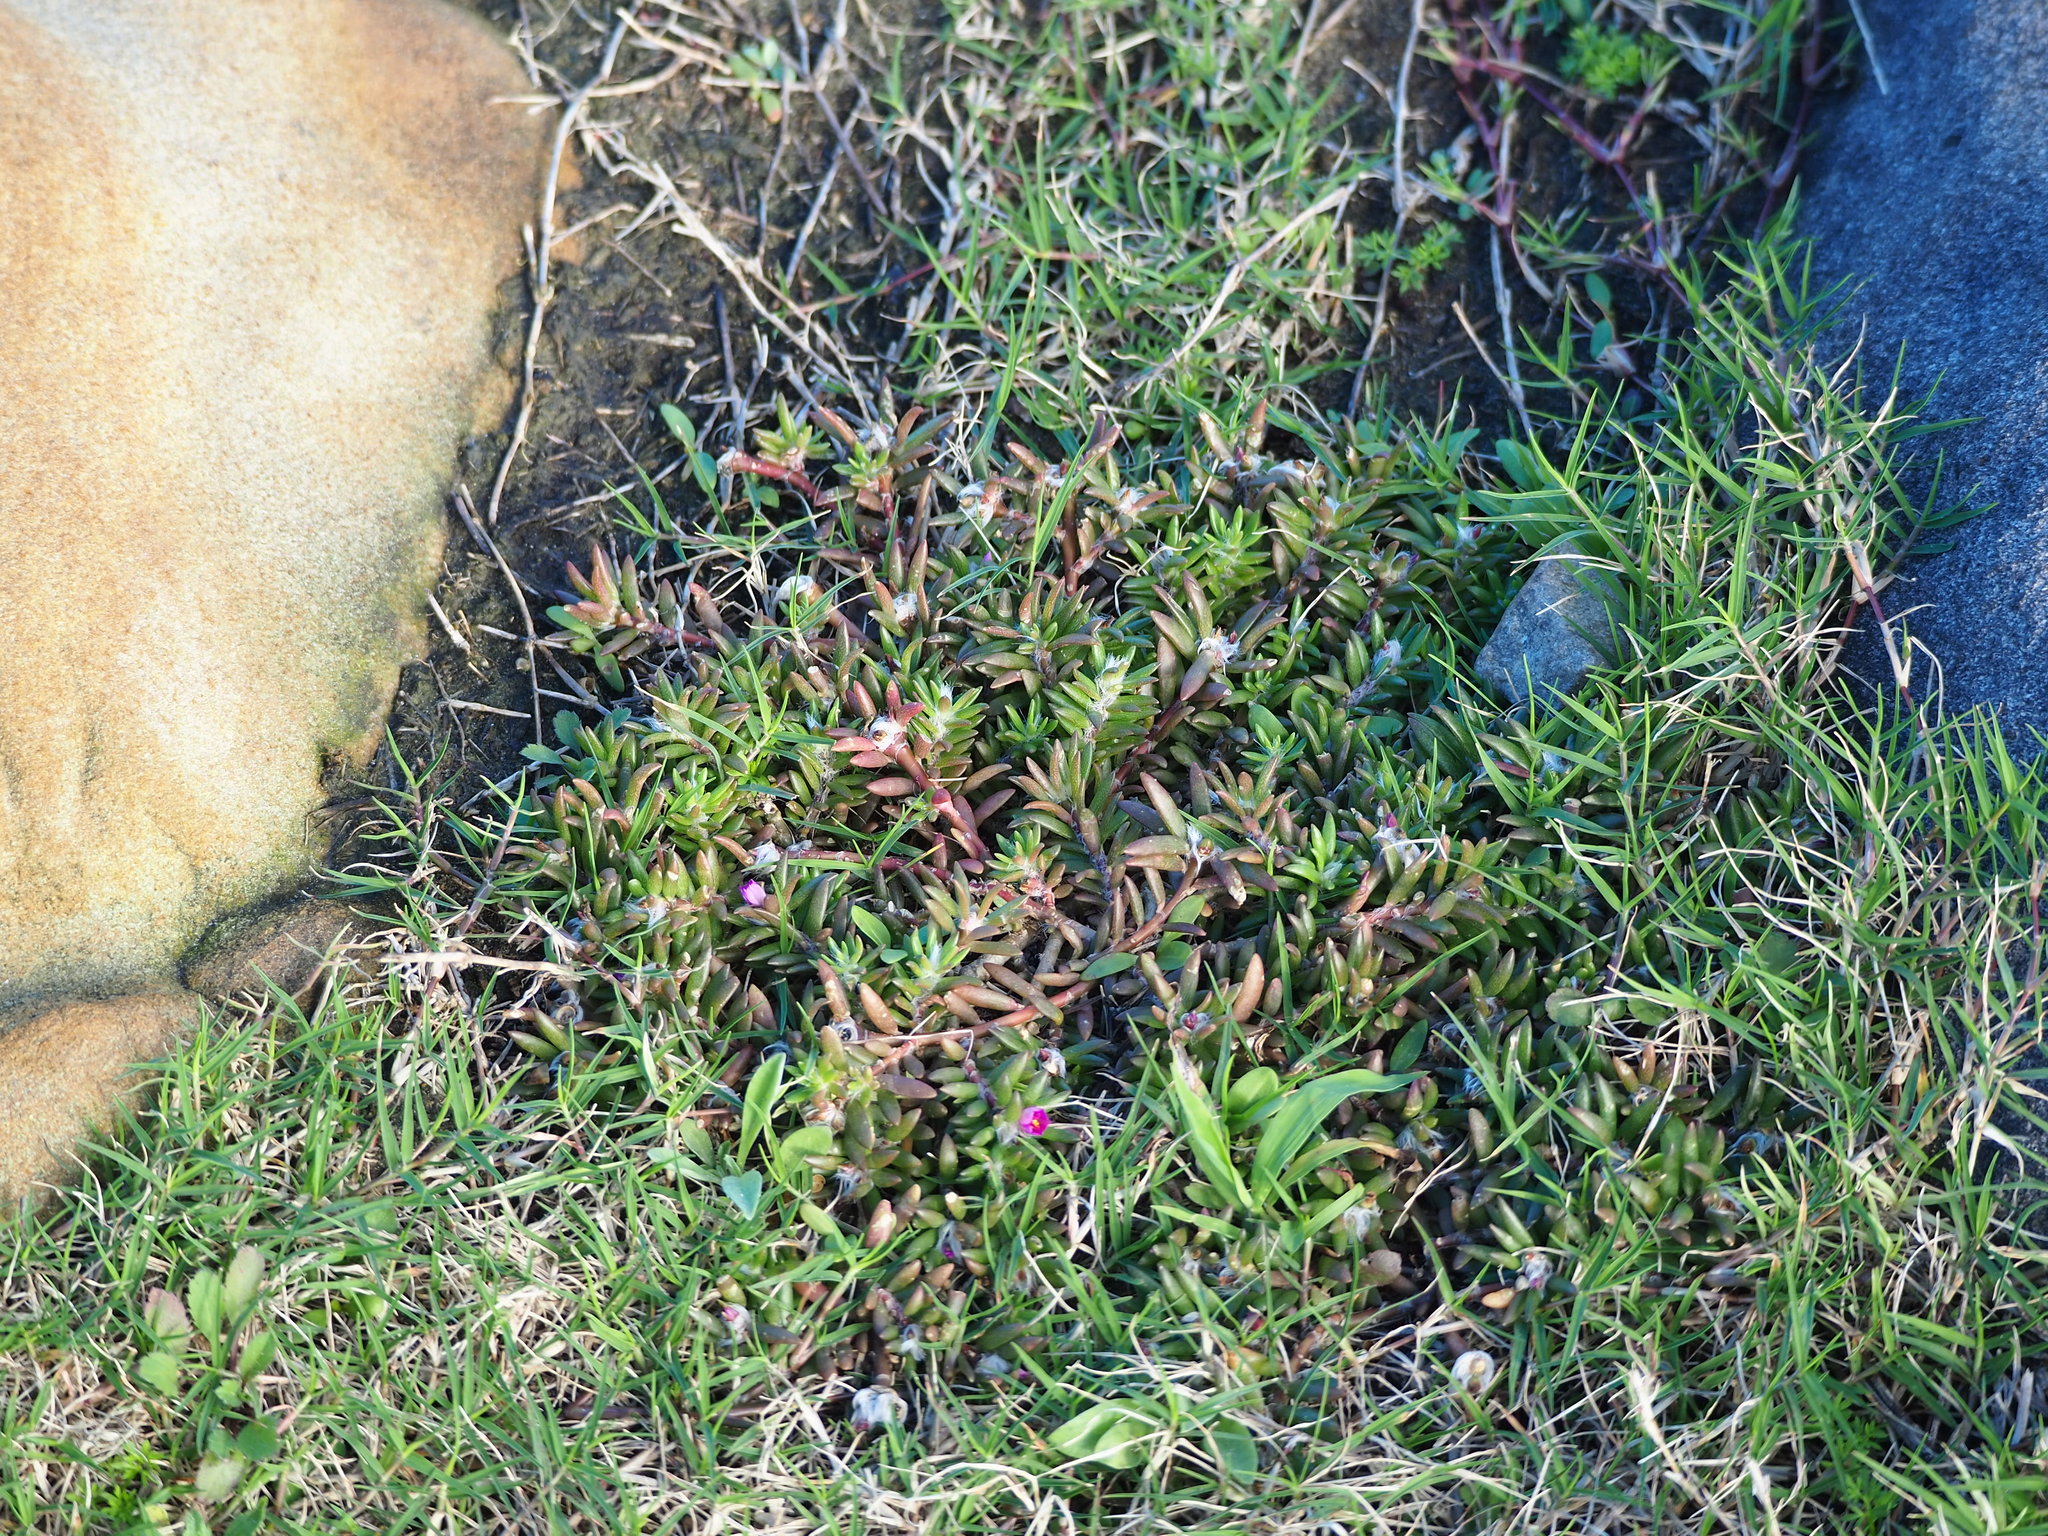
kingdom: Plantae
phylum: Tracheophyta
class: Magnoliopsida
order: Caryophyllales
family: Portulacaceae
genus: Portulaca
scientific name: Portulaca pilosa
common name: Kiss me quick
